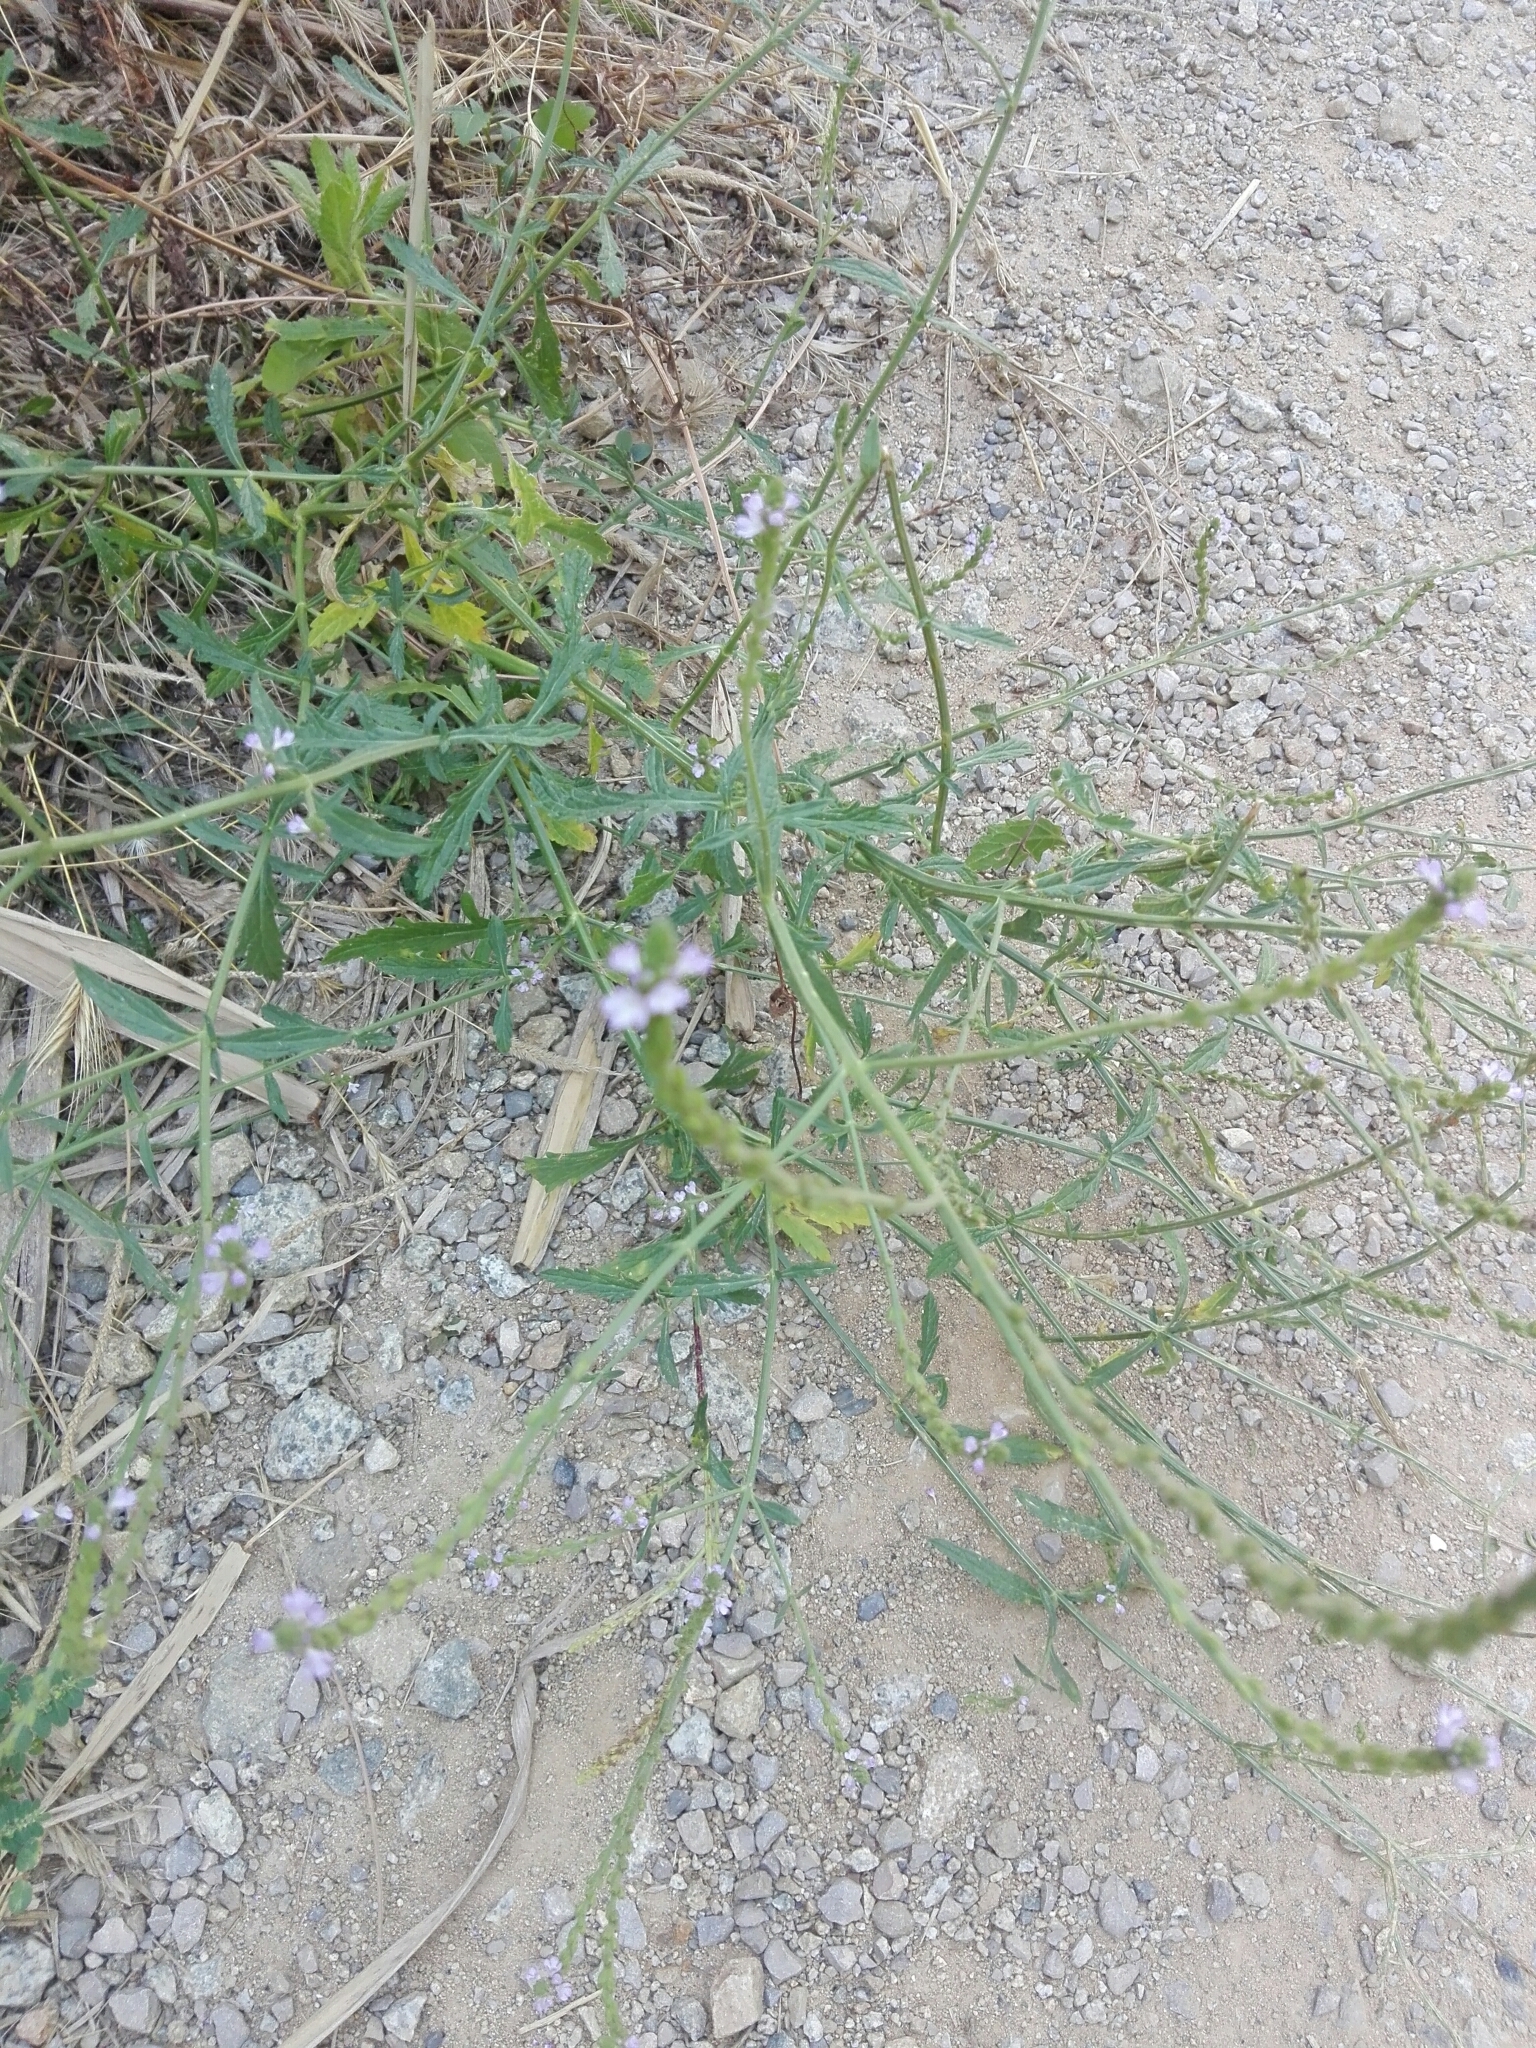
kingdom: Plantae
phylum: Tracheophyta
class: Magnoliopsida
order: Lamiales
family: Verbenaceae
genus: Verbena
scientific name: Verbena officinalis
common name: Vervain
